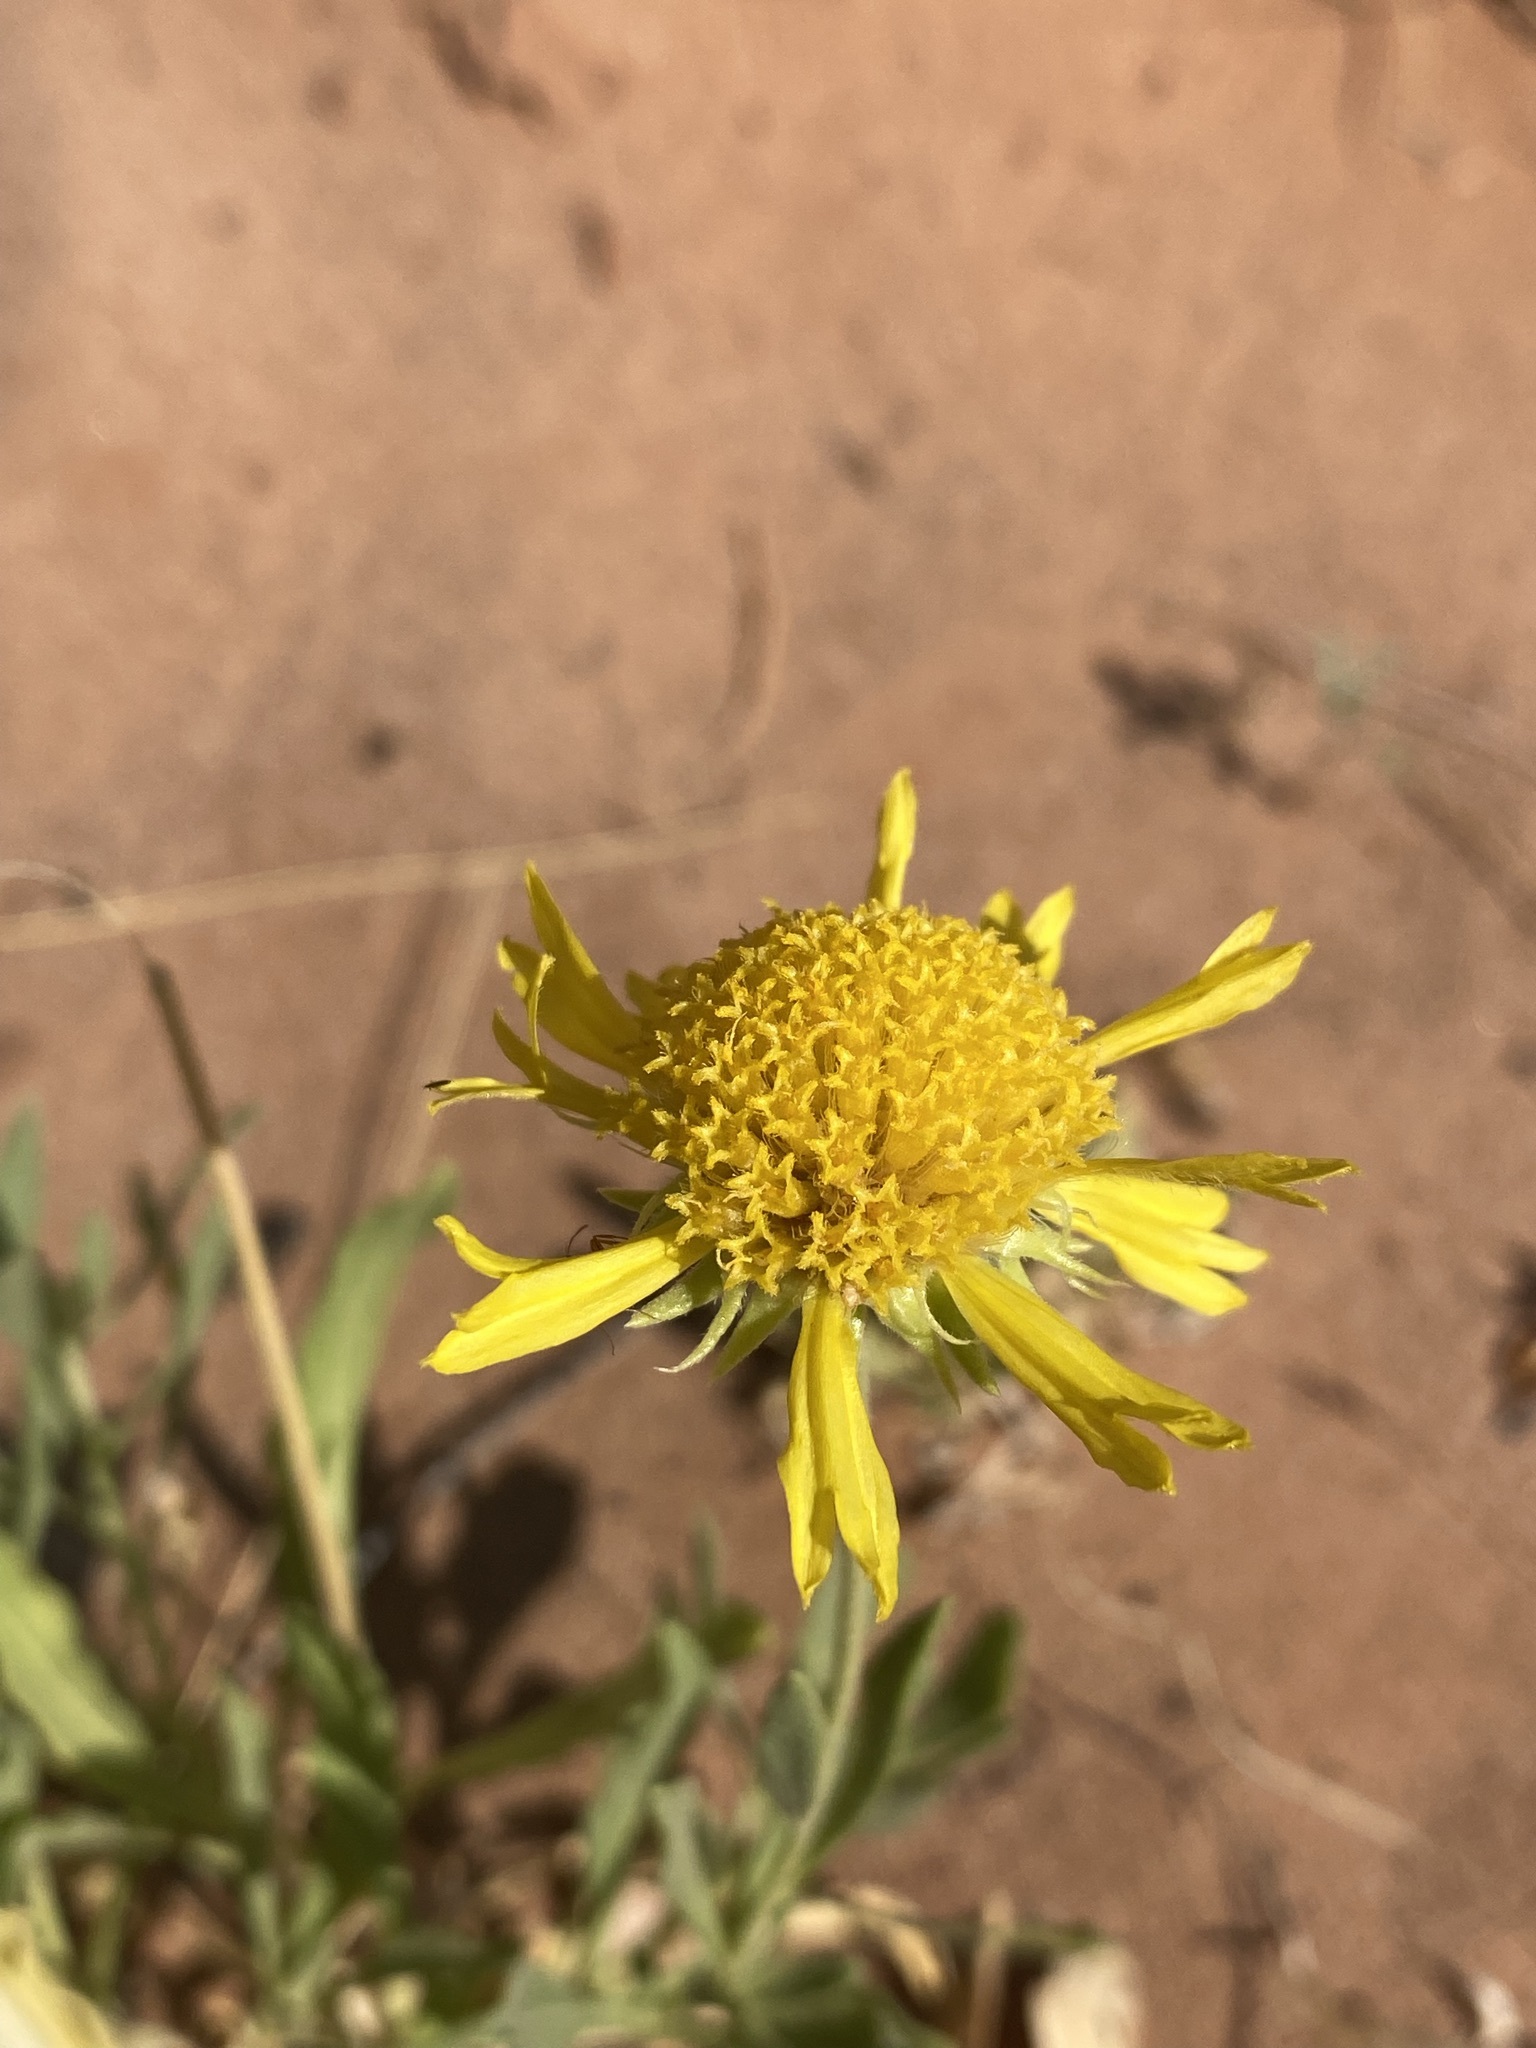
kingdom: Plantae
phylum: Tracheophyta
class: Magnoliopsida
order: Asterales
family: Asteraceae
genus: Gaillardia
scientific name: Gaillardia spathulata
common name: Basin blanket-flower
